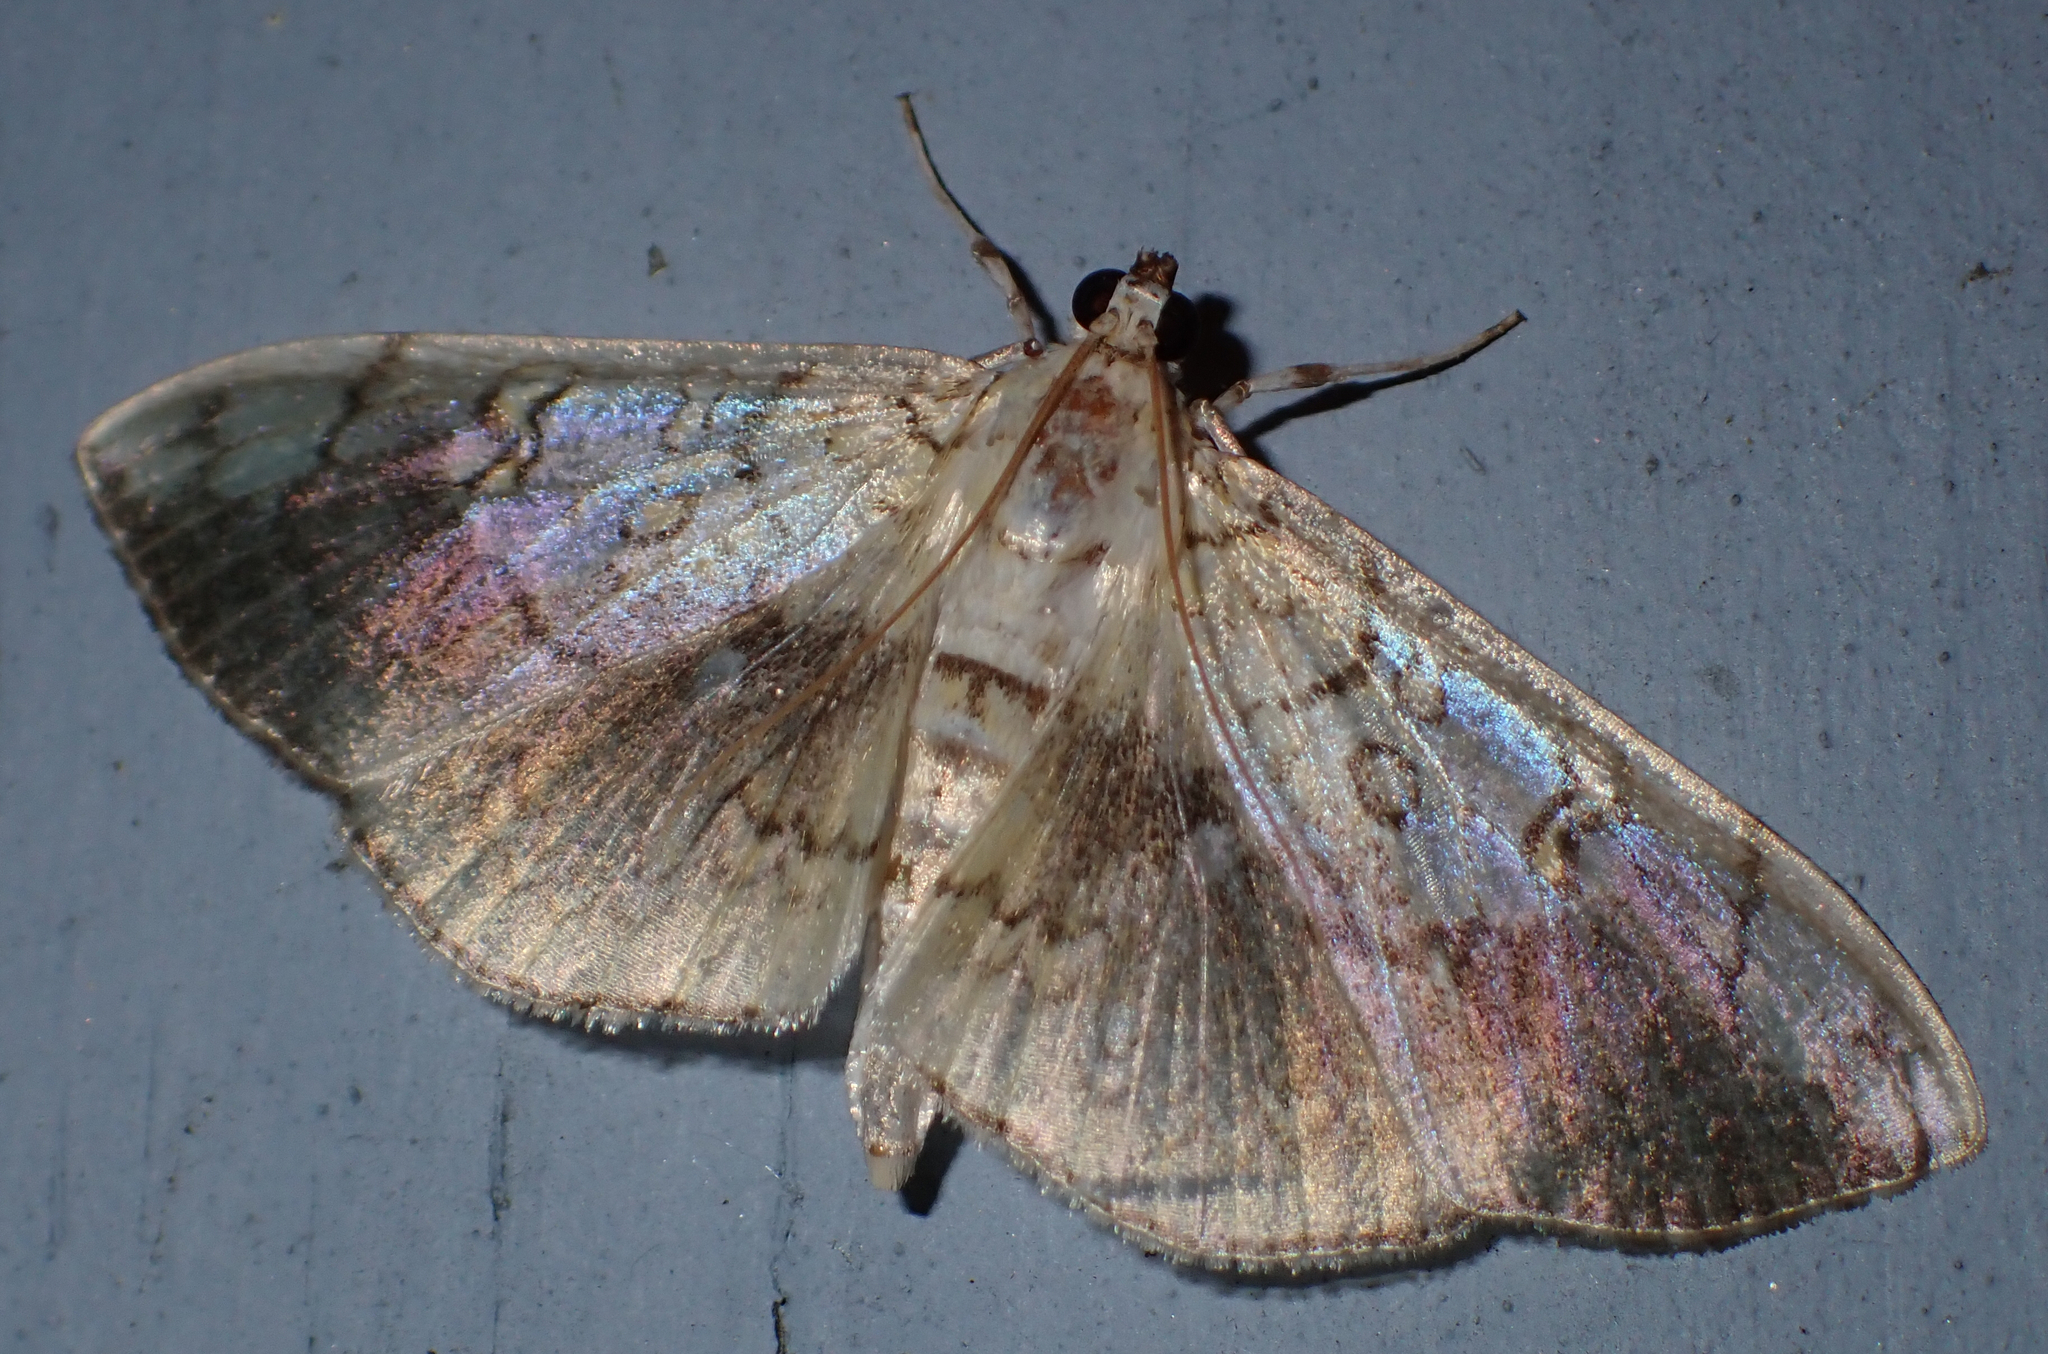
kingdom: Animalia
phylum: Arthropoda
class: Insecta
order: Lepidoptera
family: Crambidae
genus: Pantographa
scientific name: Pantographa limata
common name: Basswood leafroller moth
